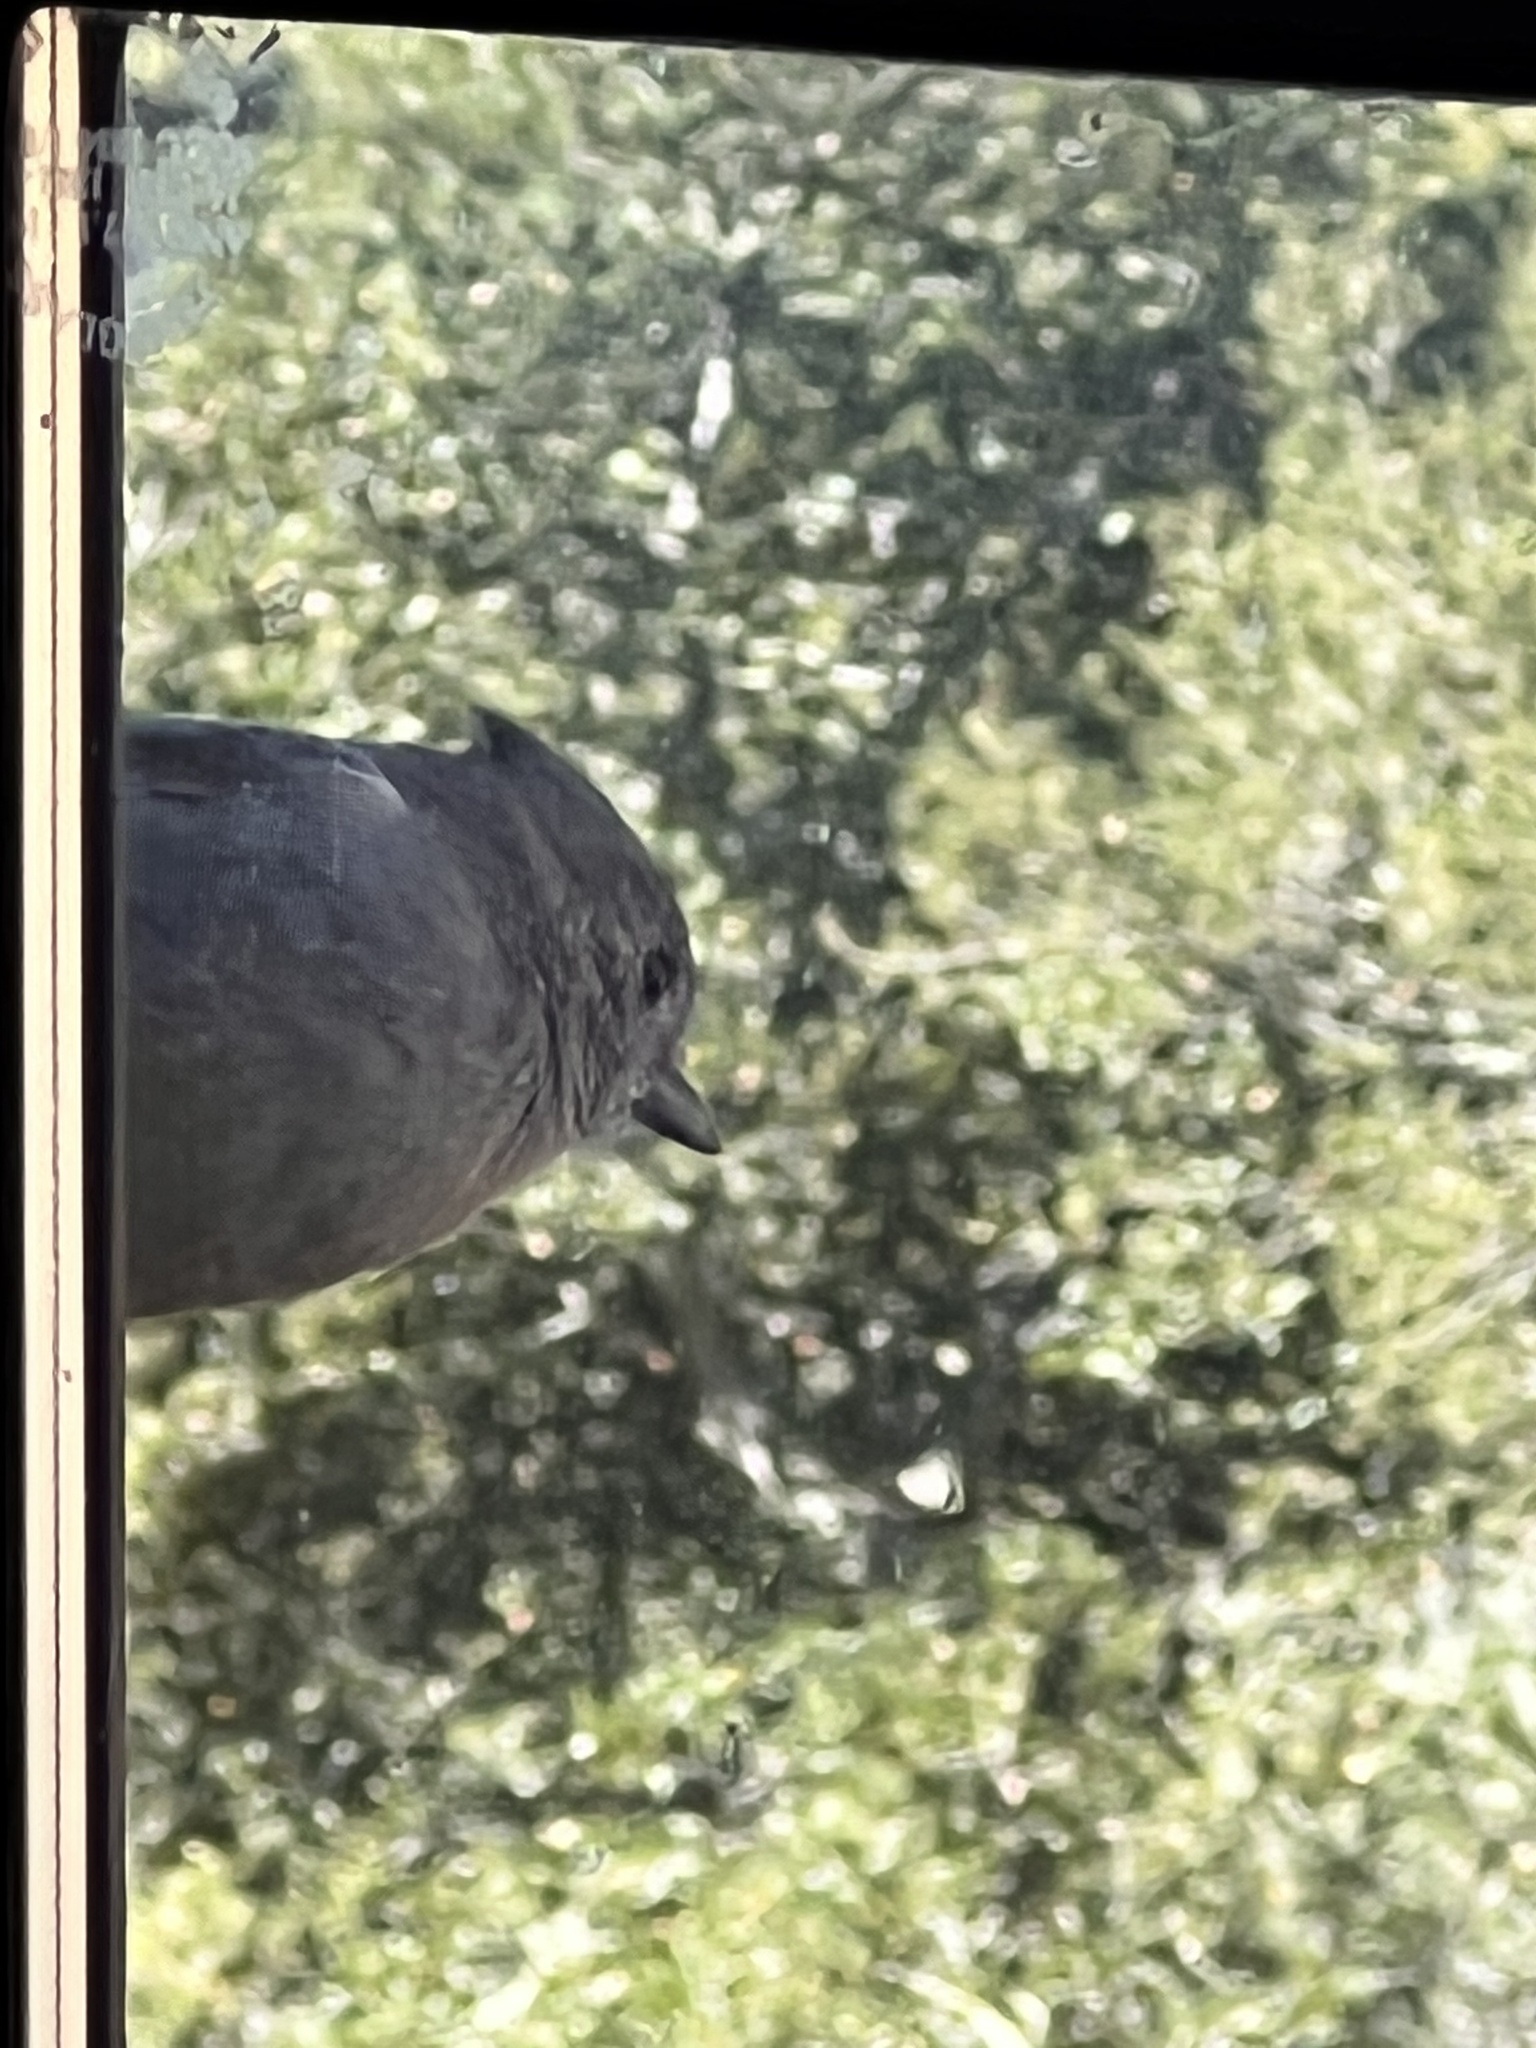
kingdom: Animalia
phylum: Chordata
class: Aves
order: Passeriformes
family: Paridae
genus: Baeolophus
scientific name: Baeolophus inornatus
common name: Oak titmouse
